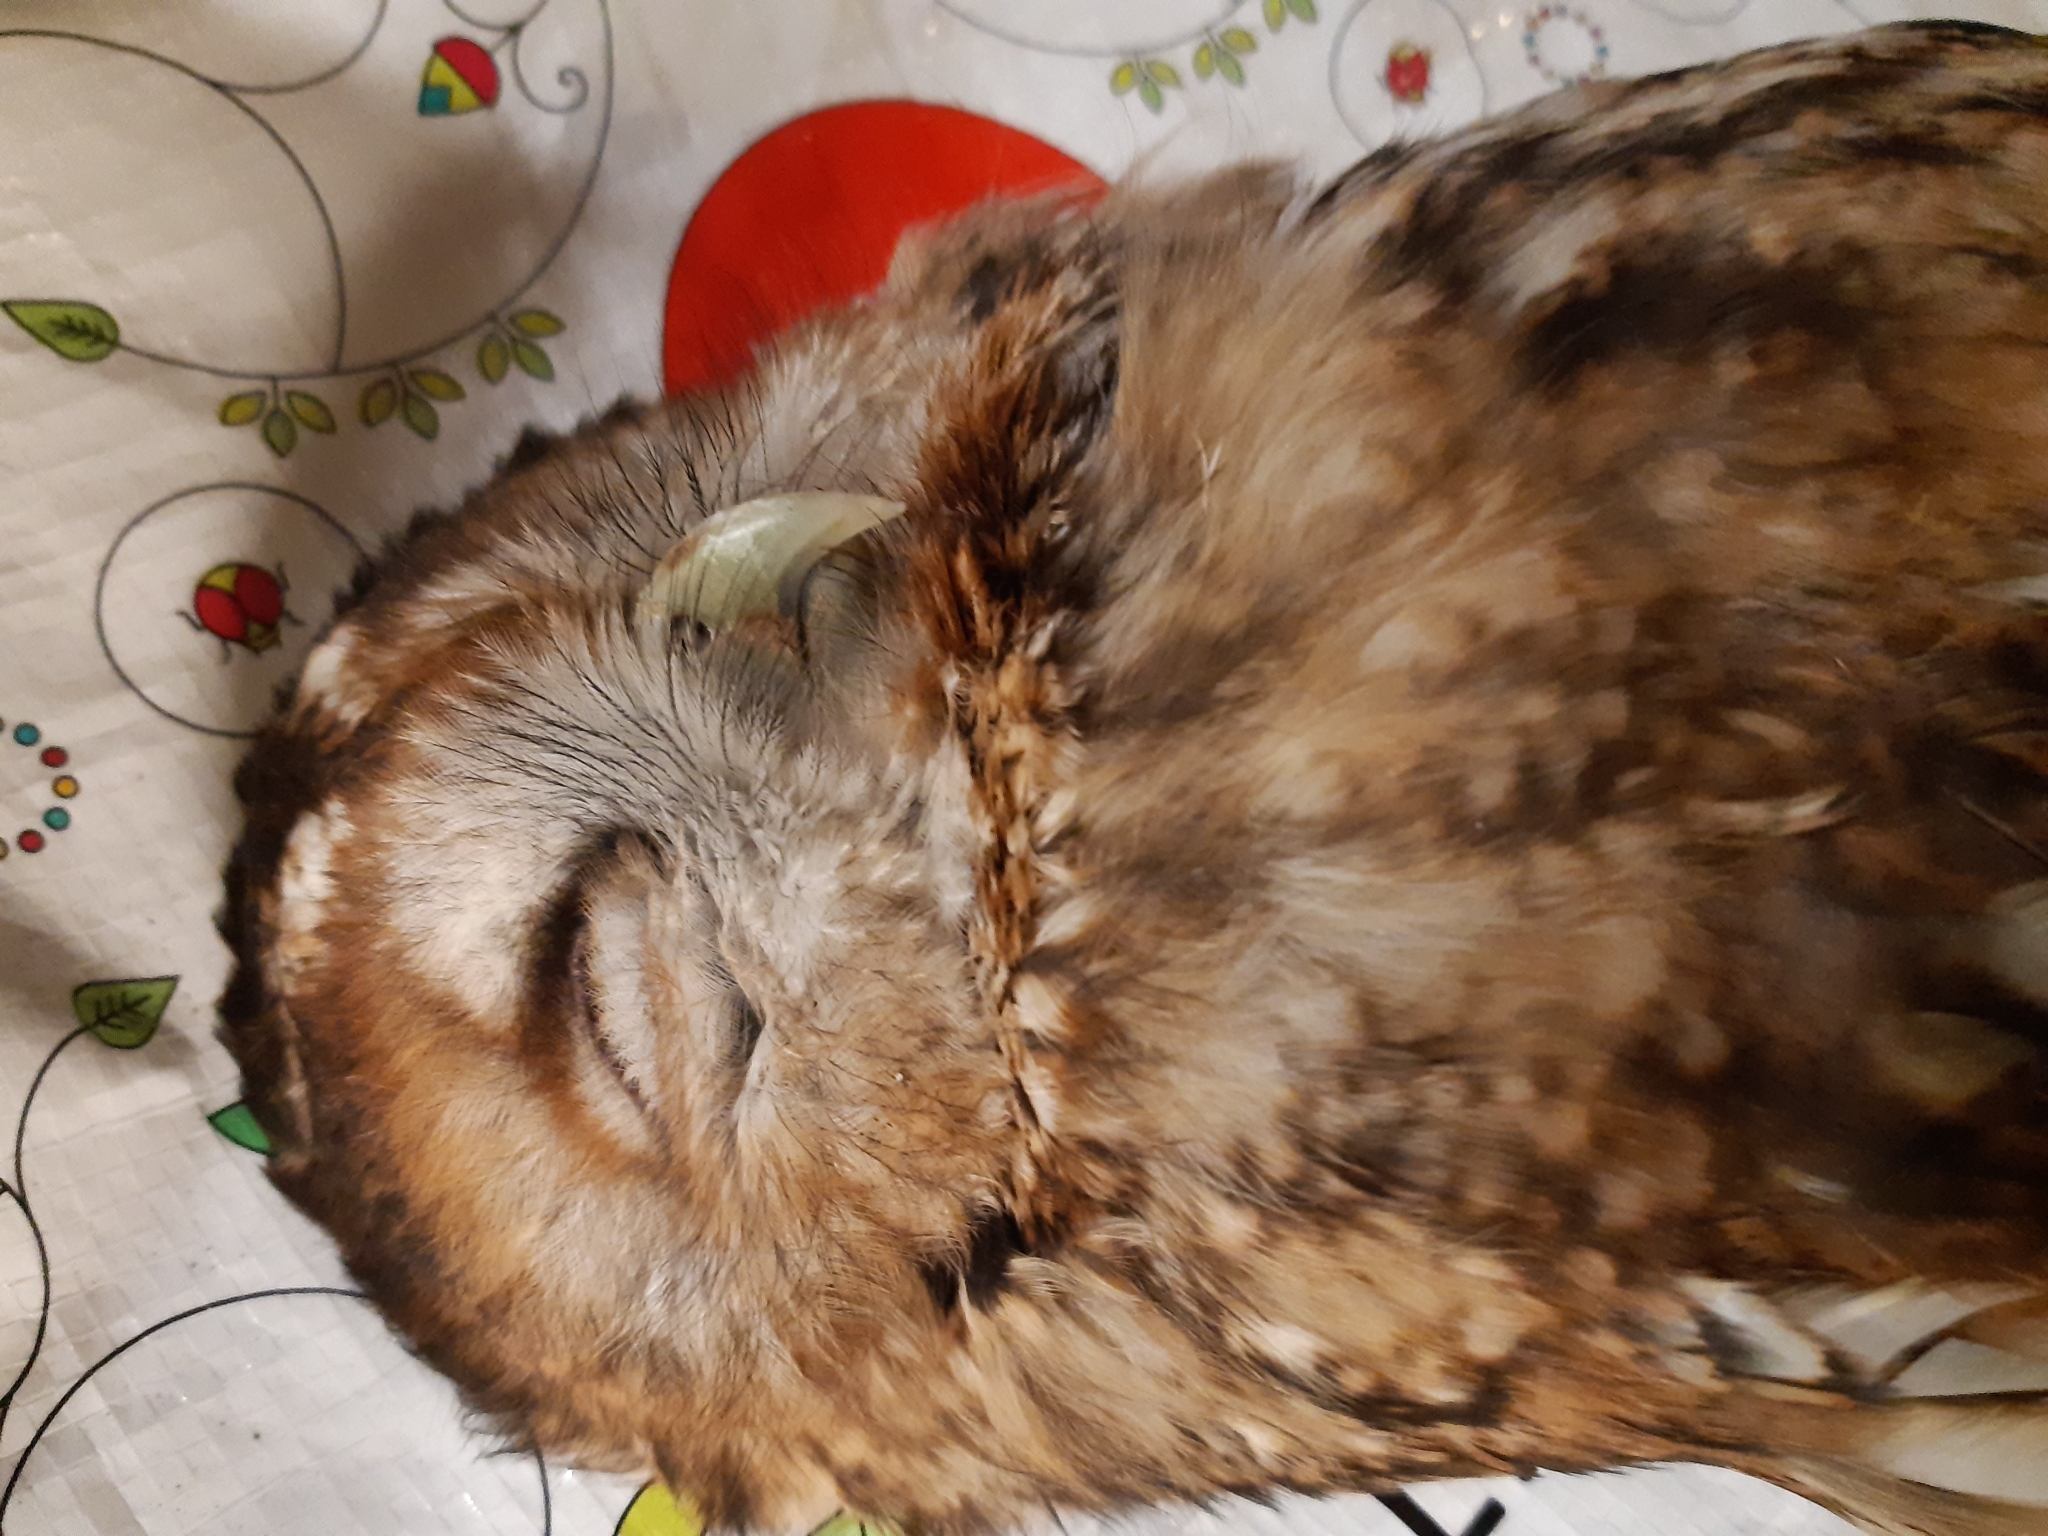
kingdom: Animalia
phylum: Chordata
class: Aves
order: Strigiformes
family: Strigidae
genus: Strix
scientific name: Strix aluco
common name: Tawny owl
